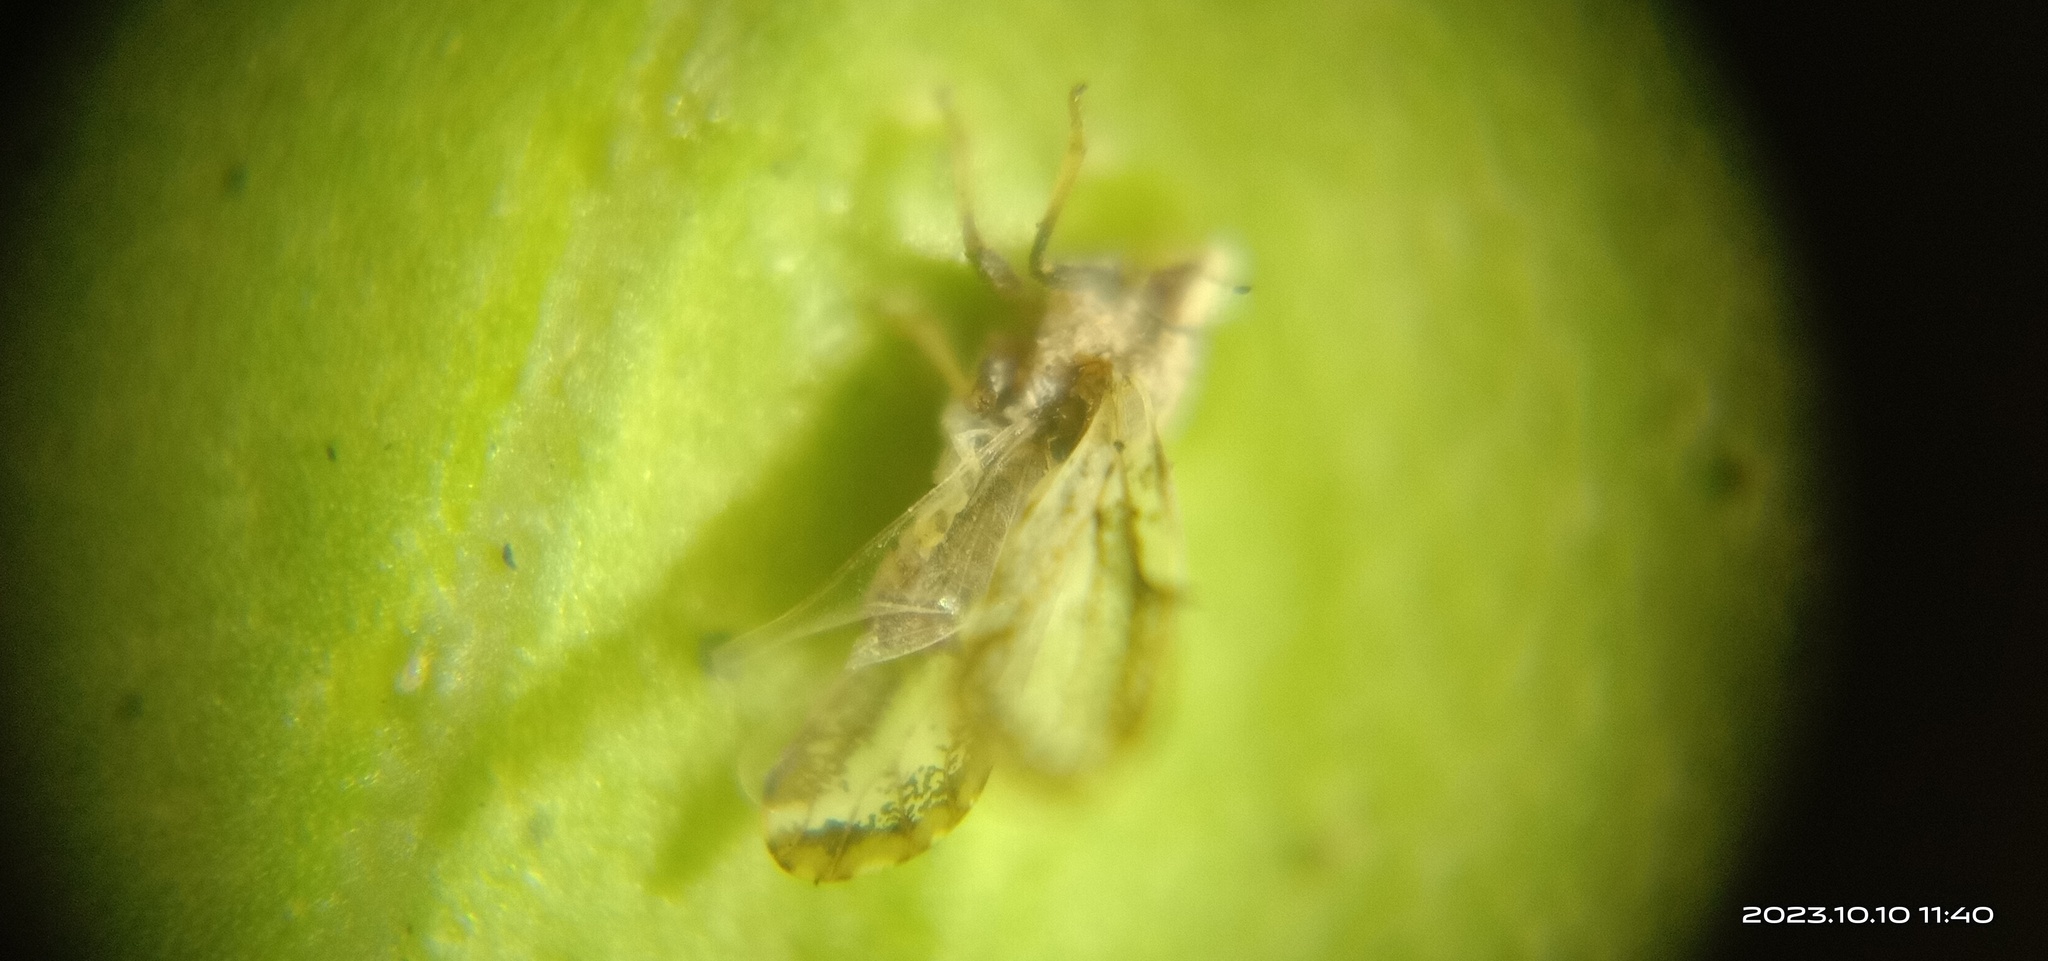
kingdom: Animalia
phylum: Arthropoda
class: Insecta
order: Hemiptera
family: Liviidae
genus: Diaphorina
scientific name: Diaphorina citri
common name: Asian citrus psyllid
